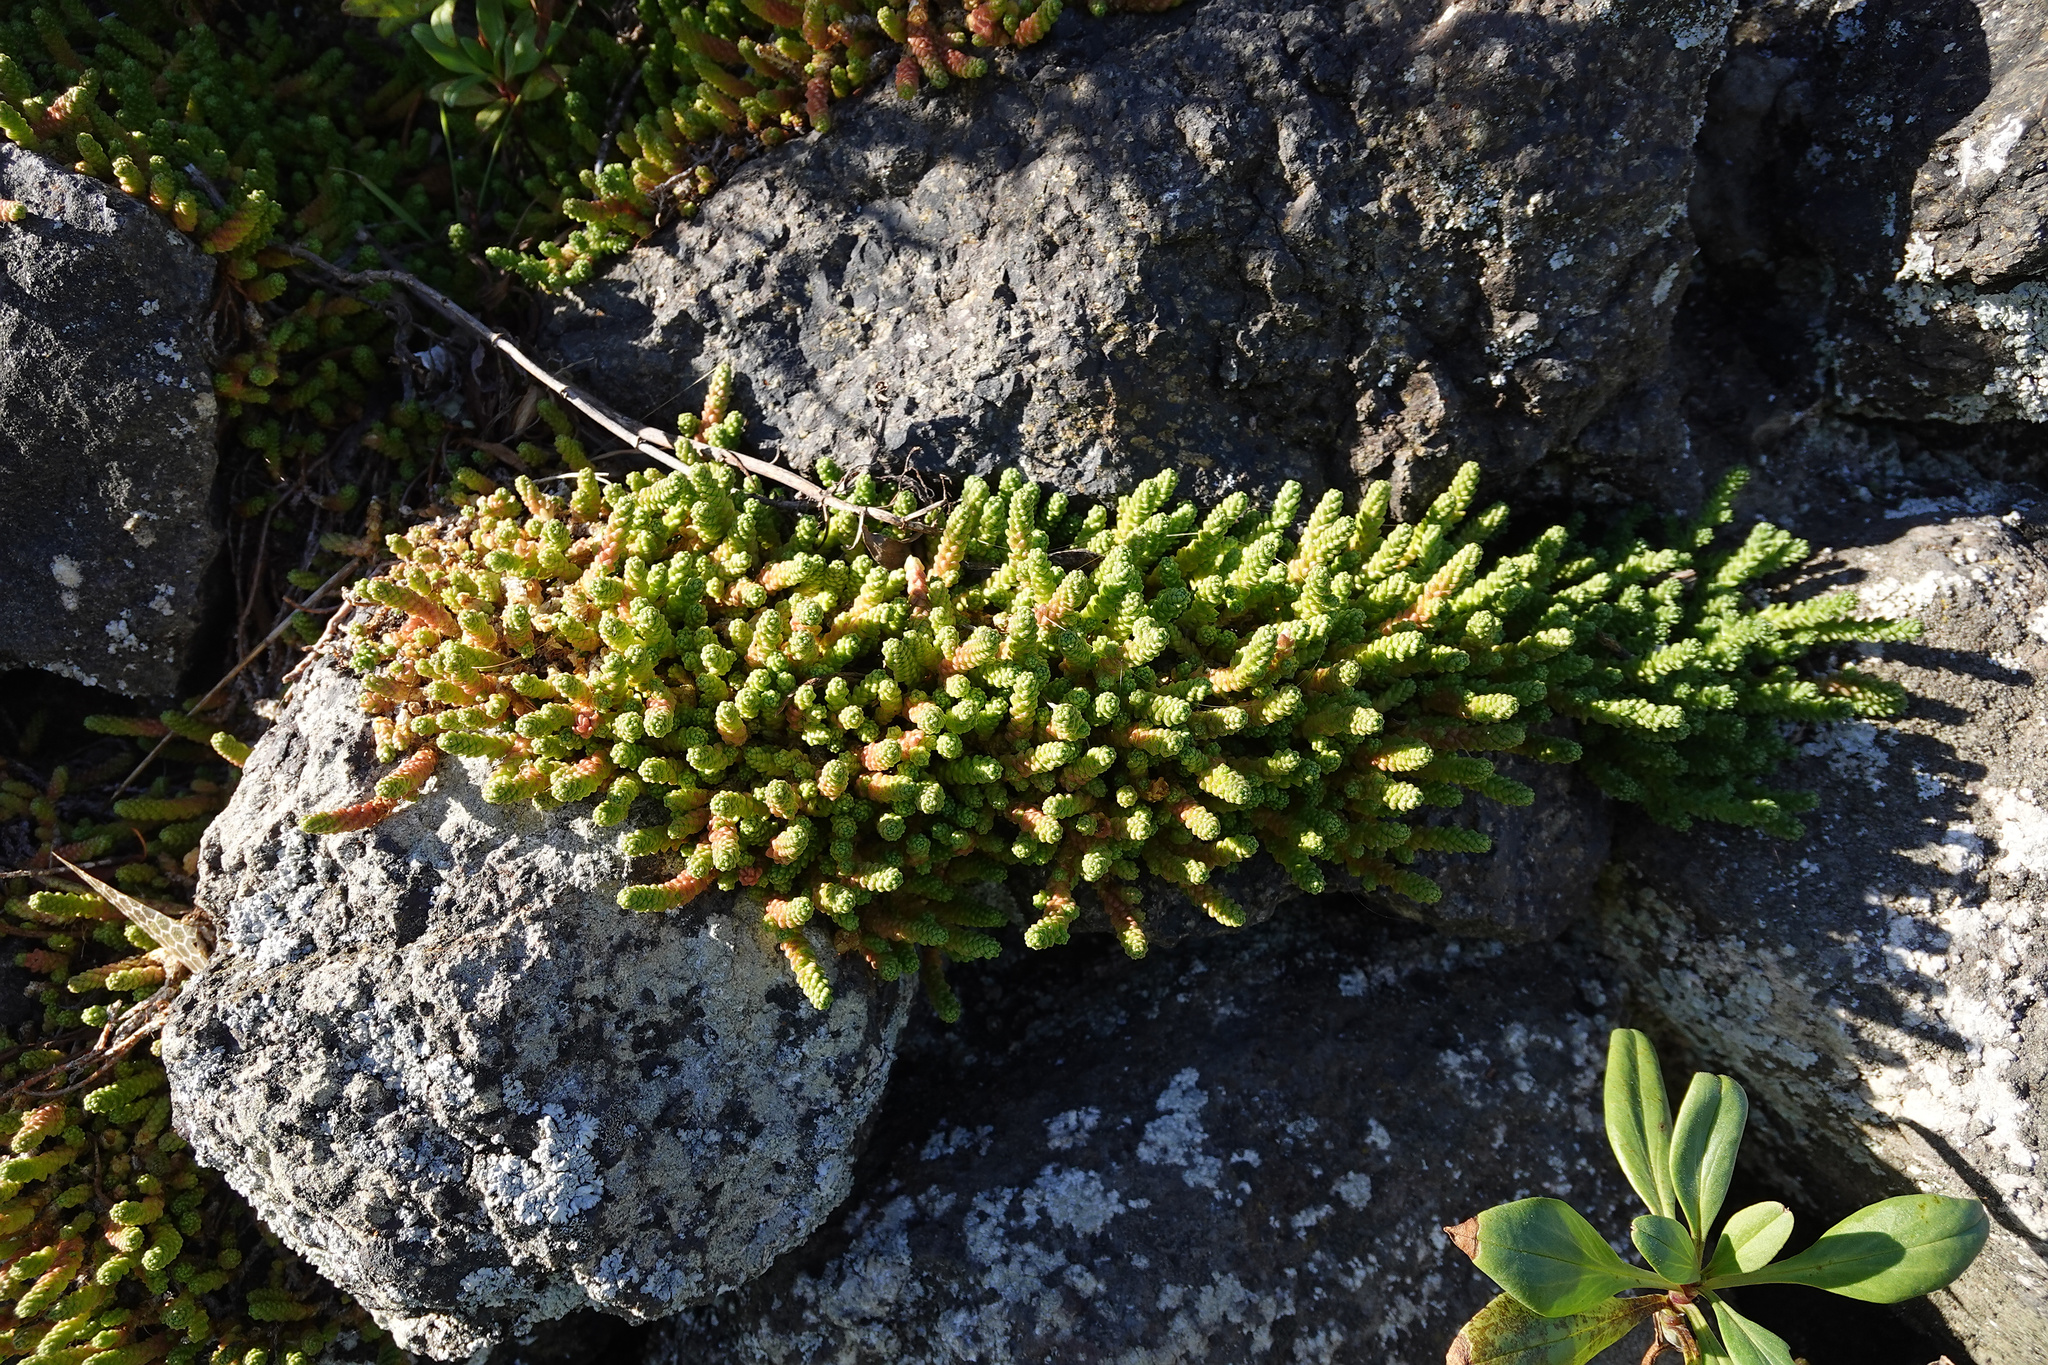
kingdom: Plantae
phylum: Tracheophyta
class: Magnoliopsida
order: Saxifragales
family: Crassulaceae
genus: Sedum
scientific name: Sedum acre
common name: Biting stonecrop
